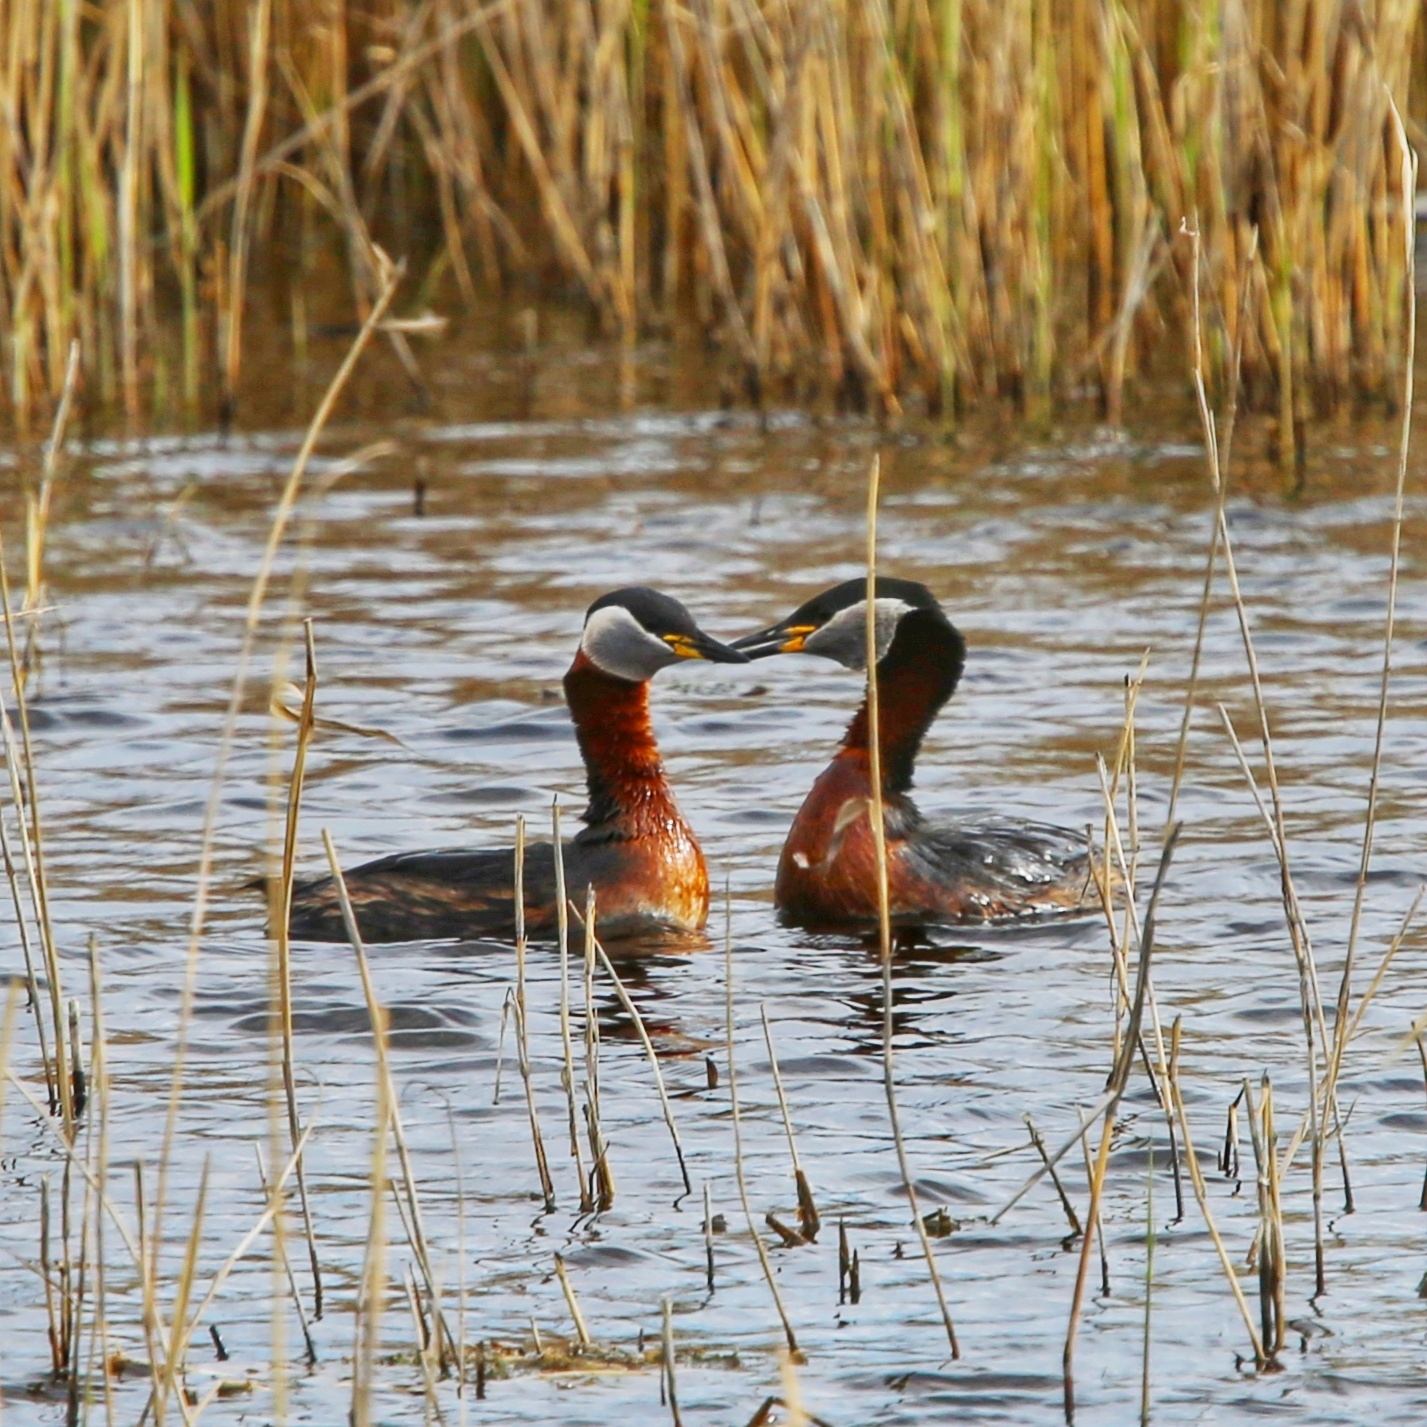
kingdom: Animalia
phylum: Chordata
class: Aves
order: Podicipediformes
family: Podicipedidae
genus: Podiceps
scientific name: Podiceps grisegena
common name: Red-necked grebe
